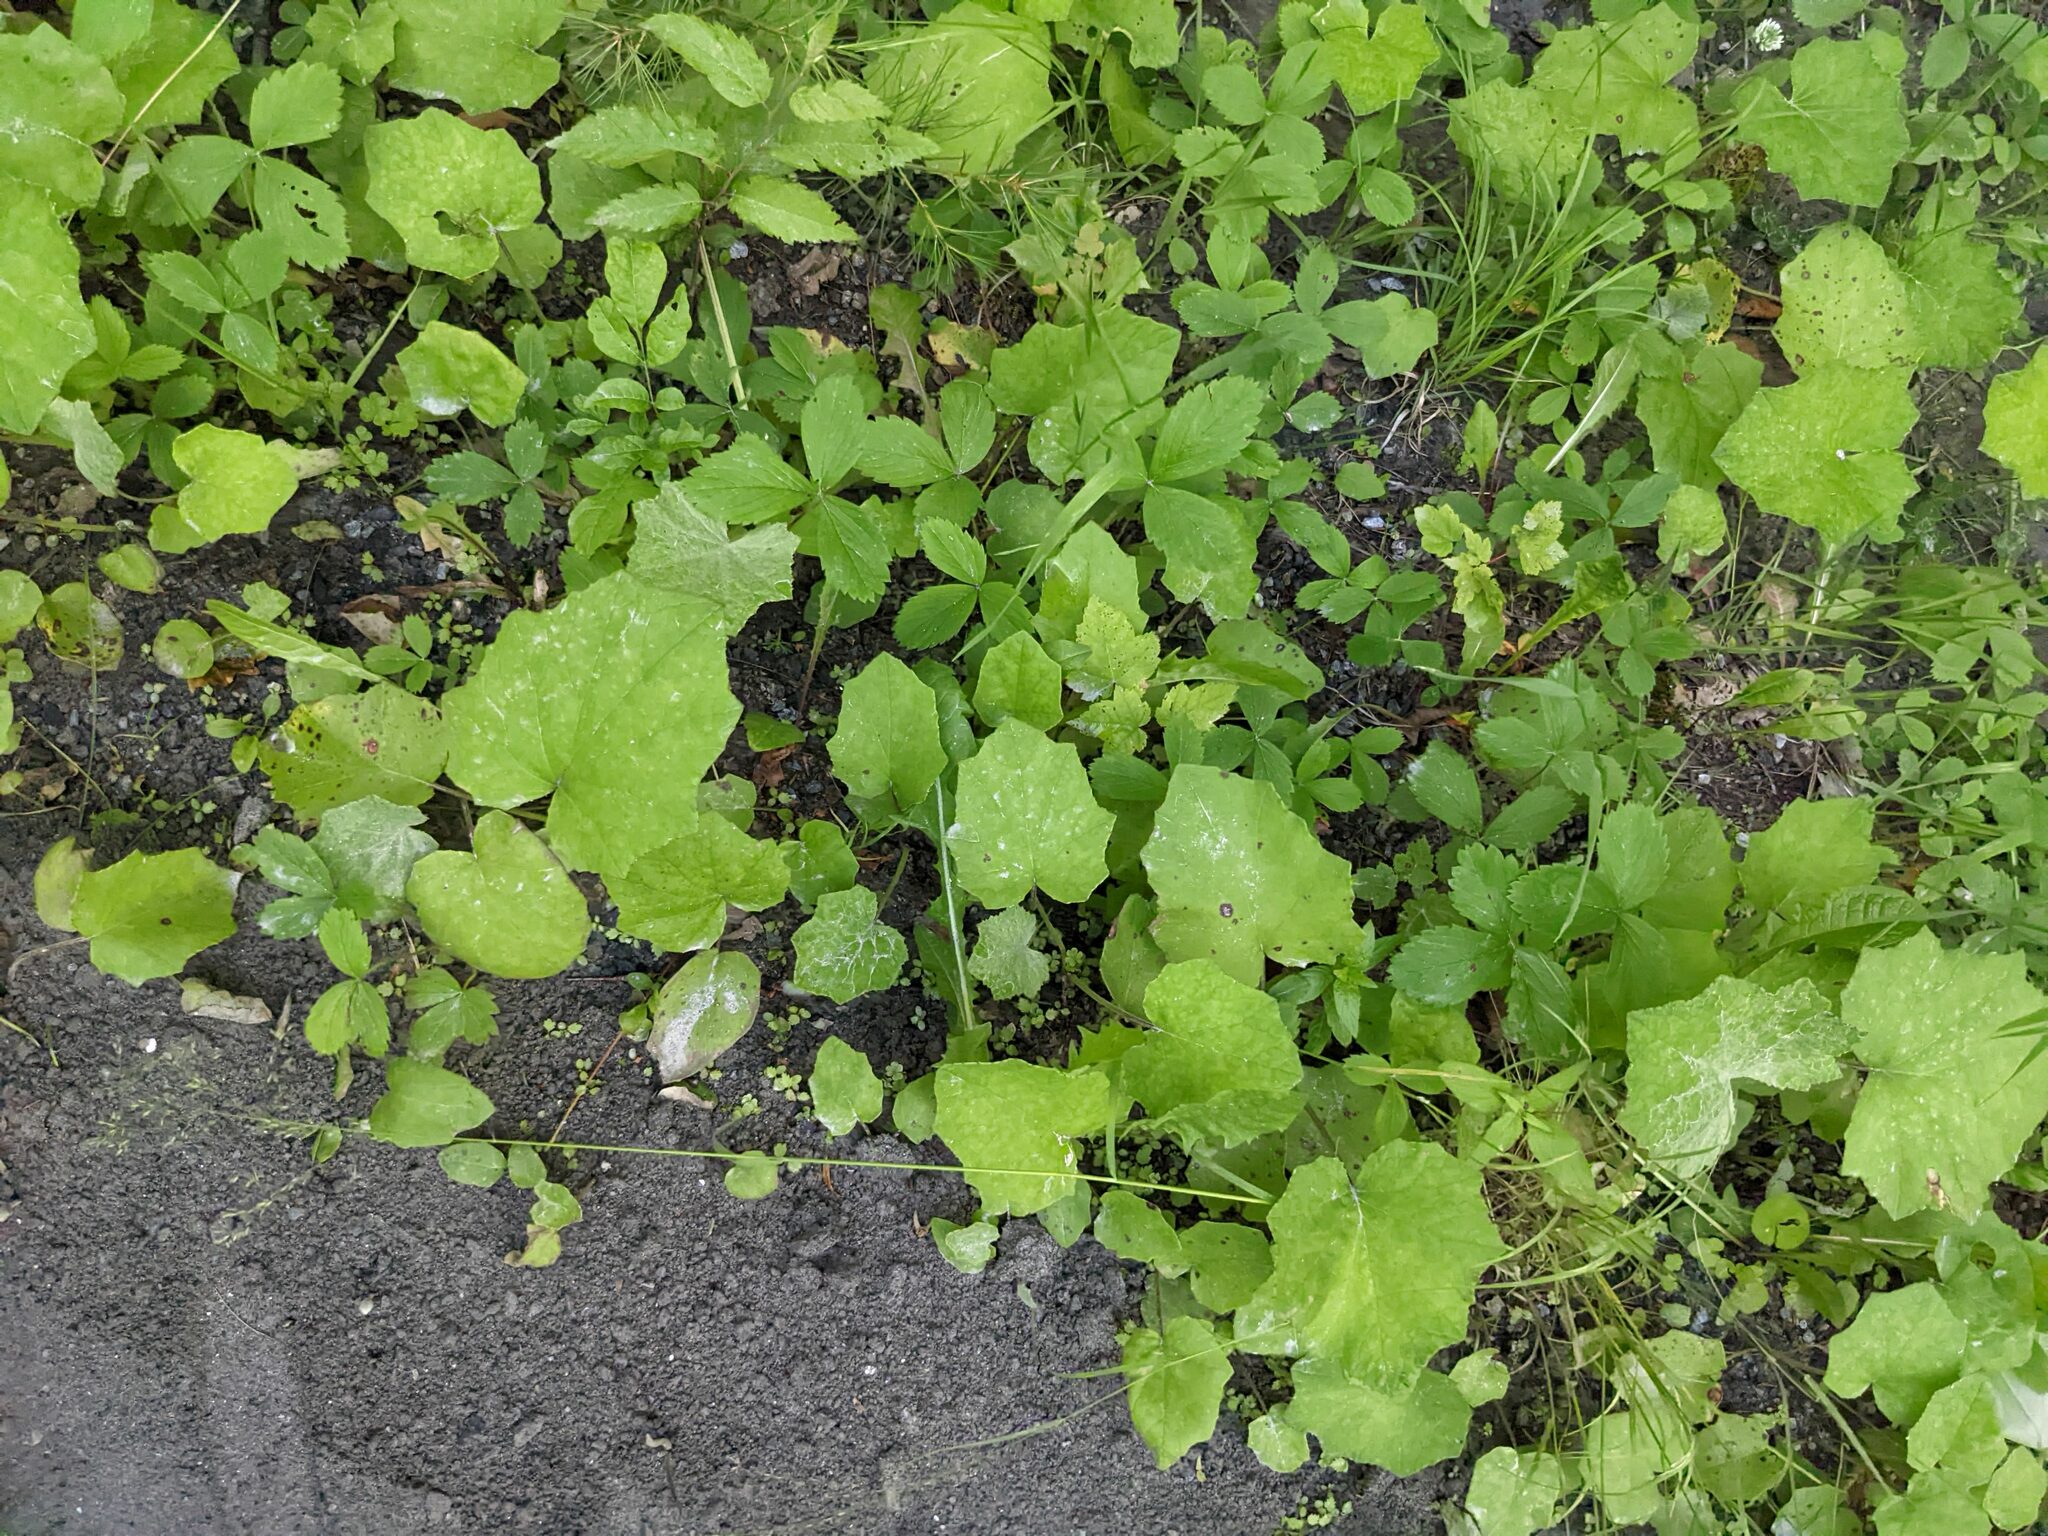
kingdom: Plantae
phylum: Tracheophyta
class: Magnoliopsida
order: Asterales
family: Asteraceae
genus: Tussilago
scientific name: Tussilago farfara
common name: Coltsfoot
